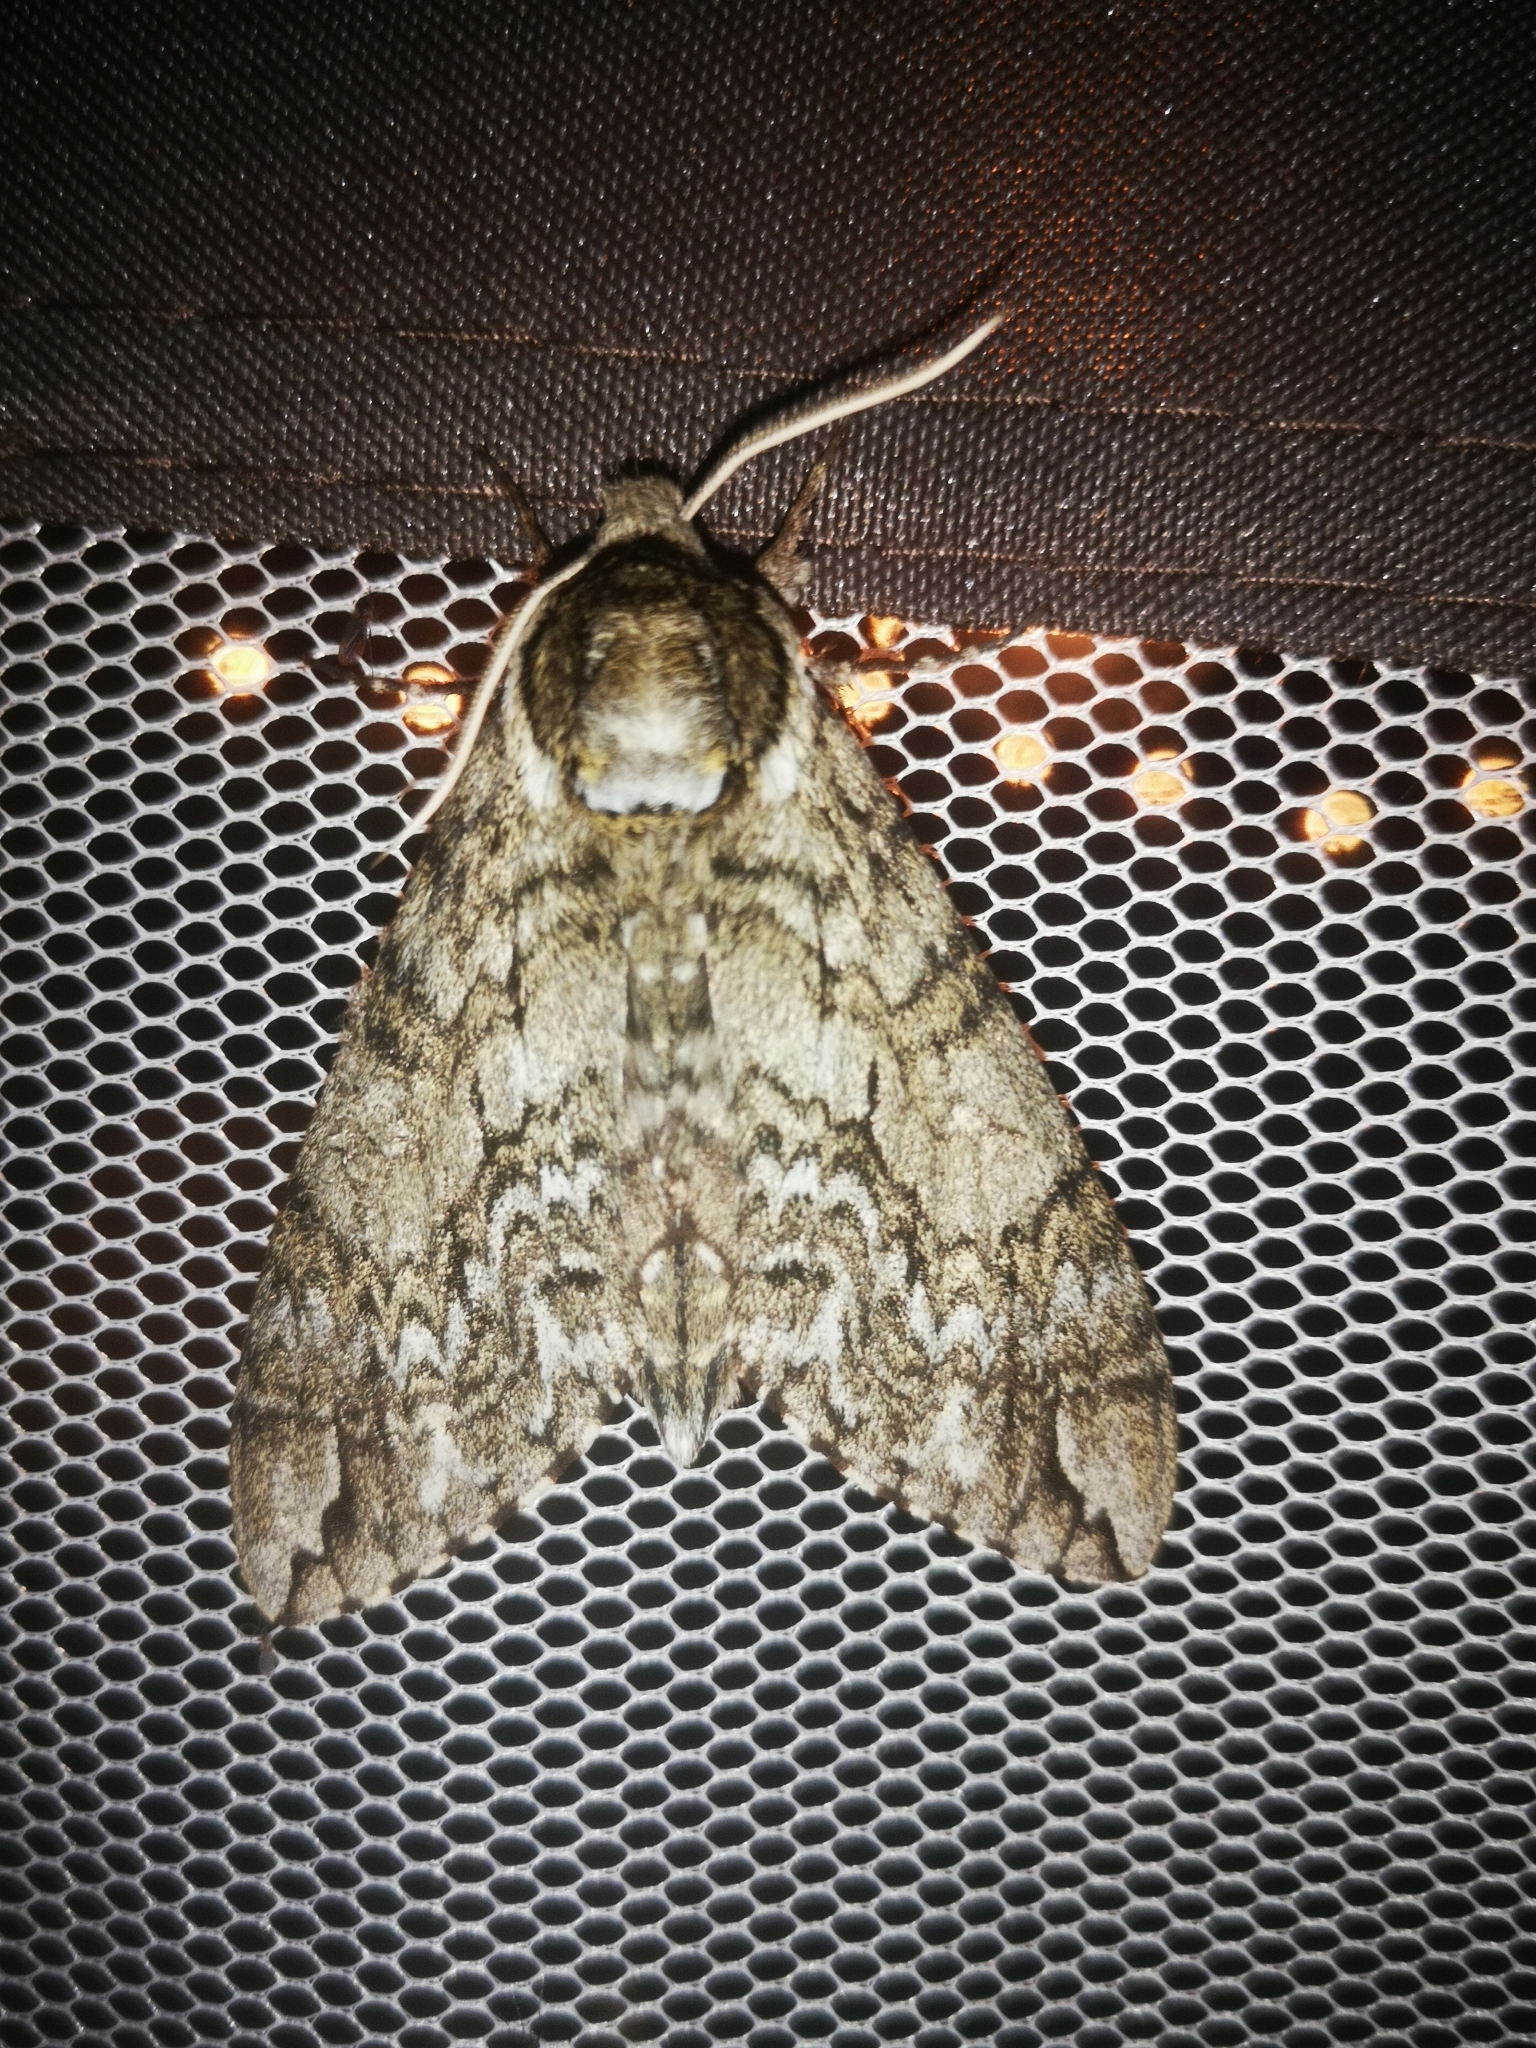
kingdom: Animalia
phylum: Arthropoda
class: Insecta
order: Lepidoptera
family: Sphingidae
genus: Ceratomia
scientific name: Ceratomia undulosa
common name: Waved sphinx
